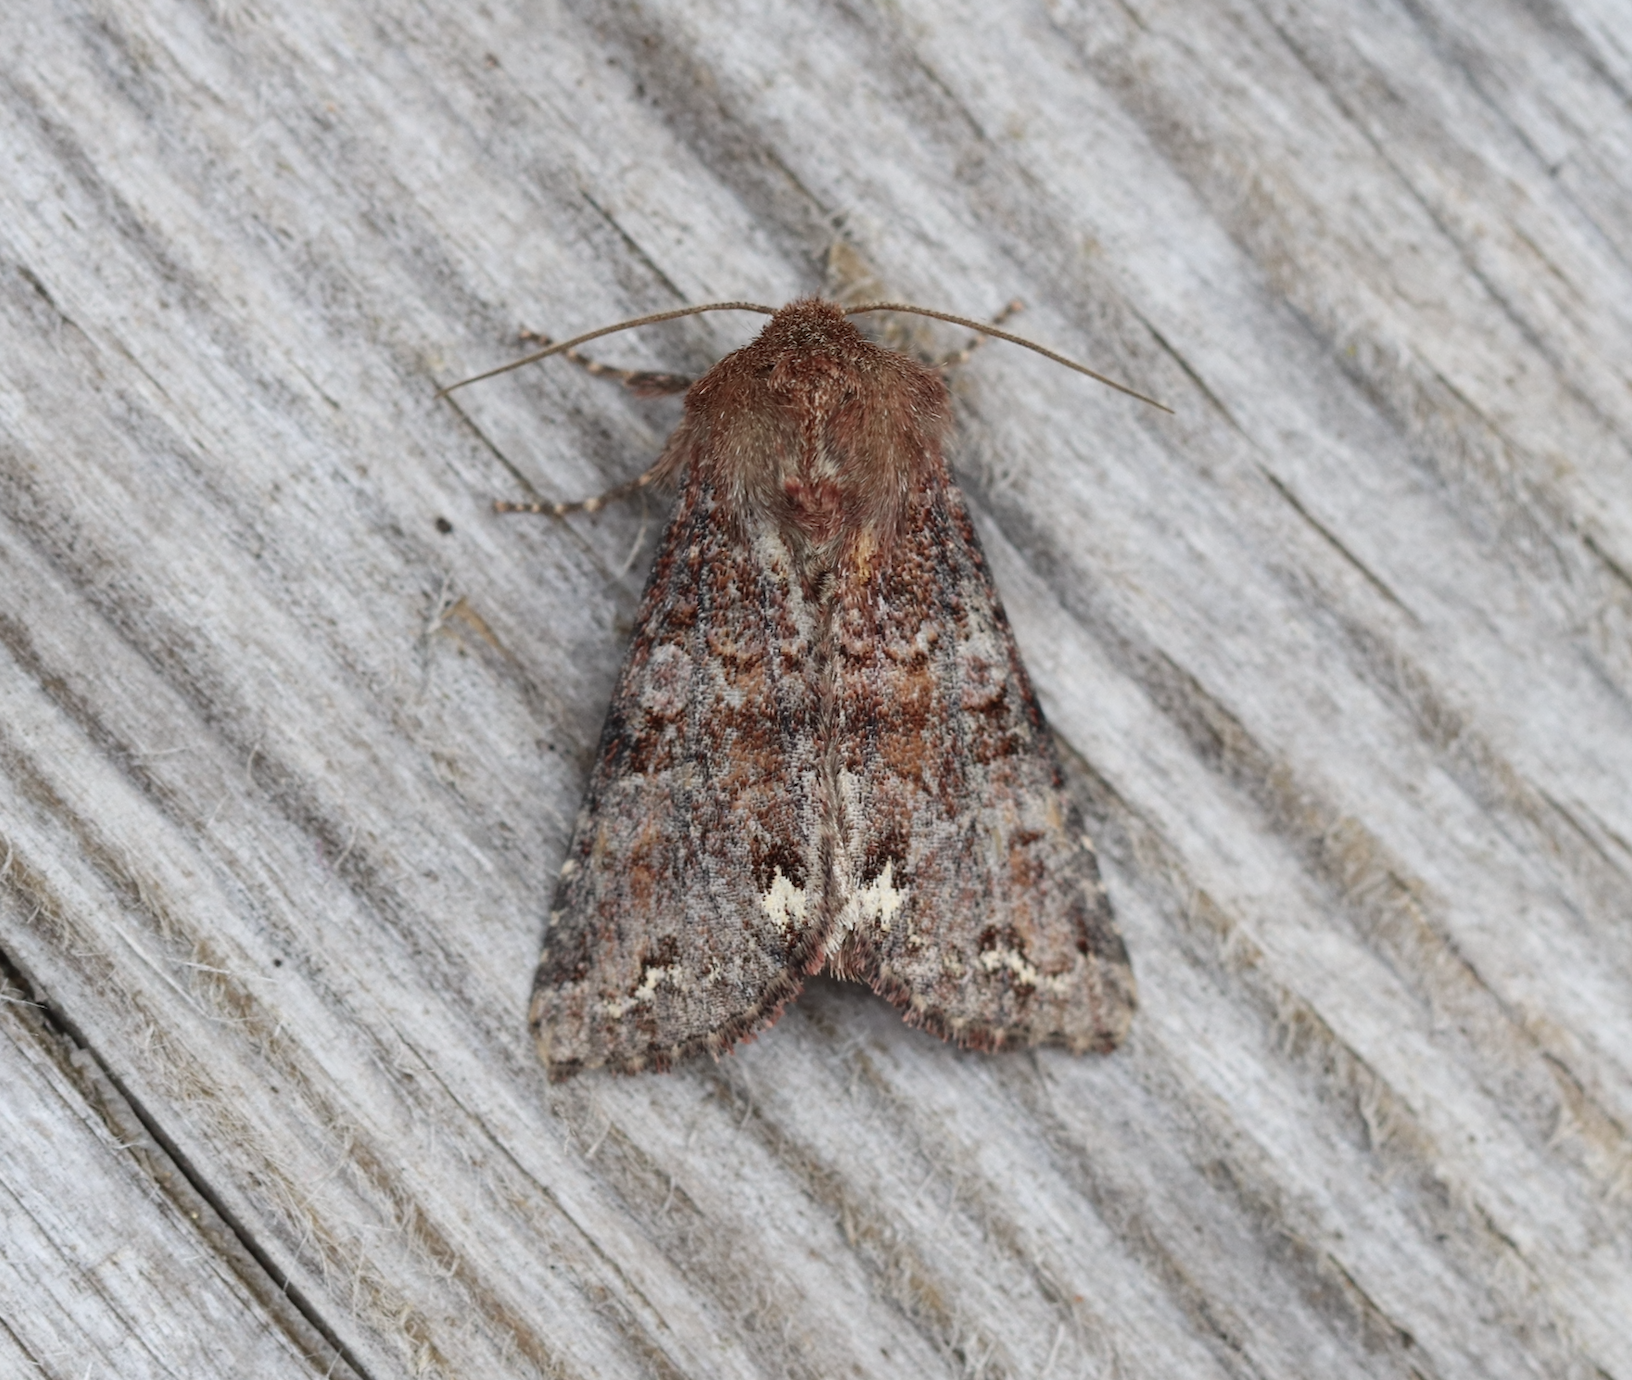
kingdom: Animalia
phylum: Arthropoda
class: Insecta
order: Lepidoptera
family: Noctuidae
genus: Ceramica
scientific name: Ceramica pisi
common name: Broom moth
